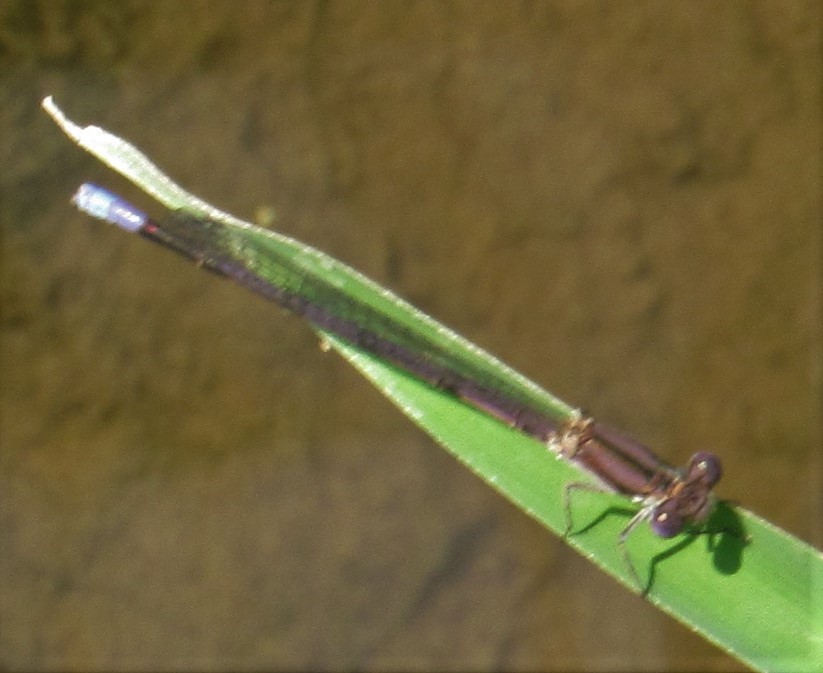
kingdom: Animalia
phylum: Arthropoda
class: Insecta
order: Odonata
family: Coenagrionidae
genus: Argia
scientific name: Argia fumipennis
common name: Variable dancer
